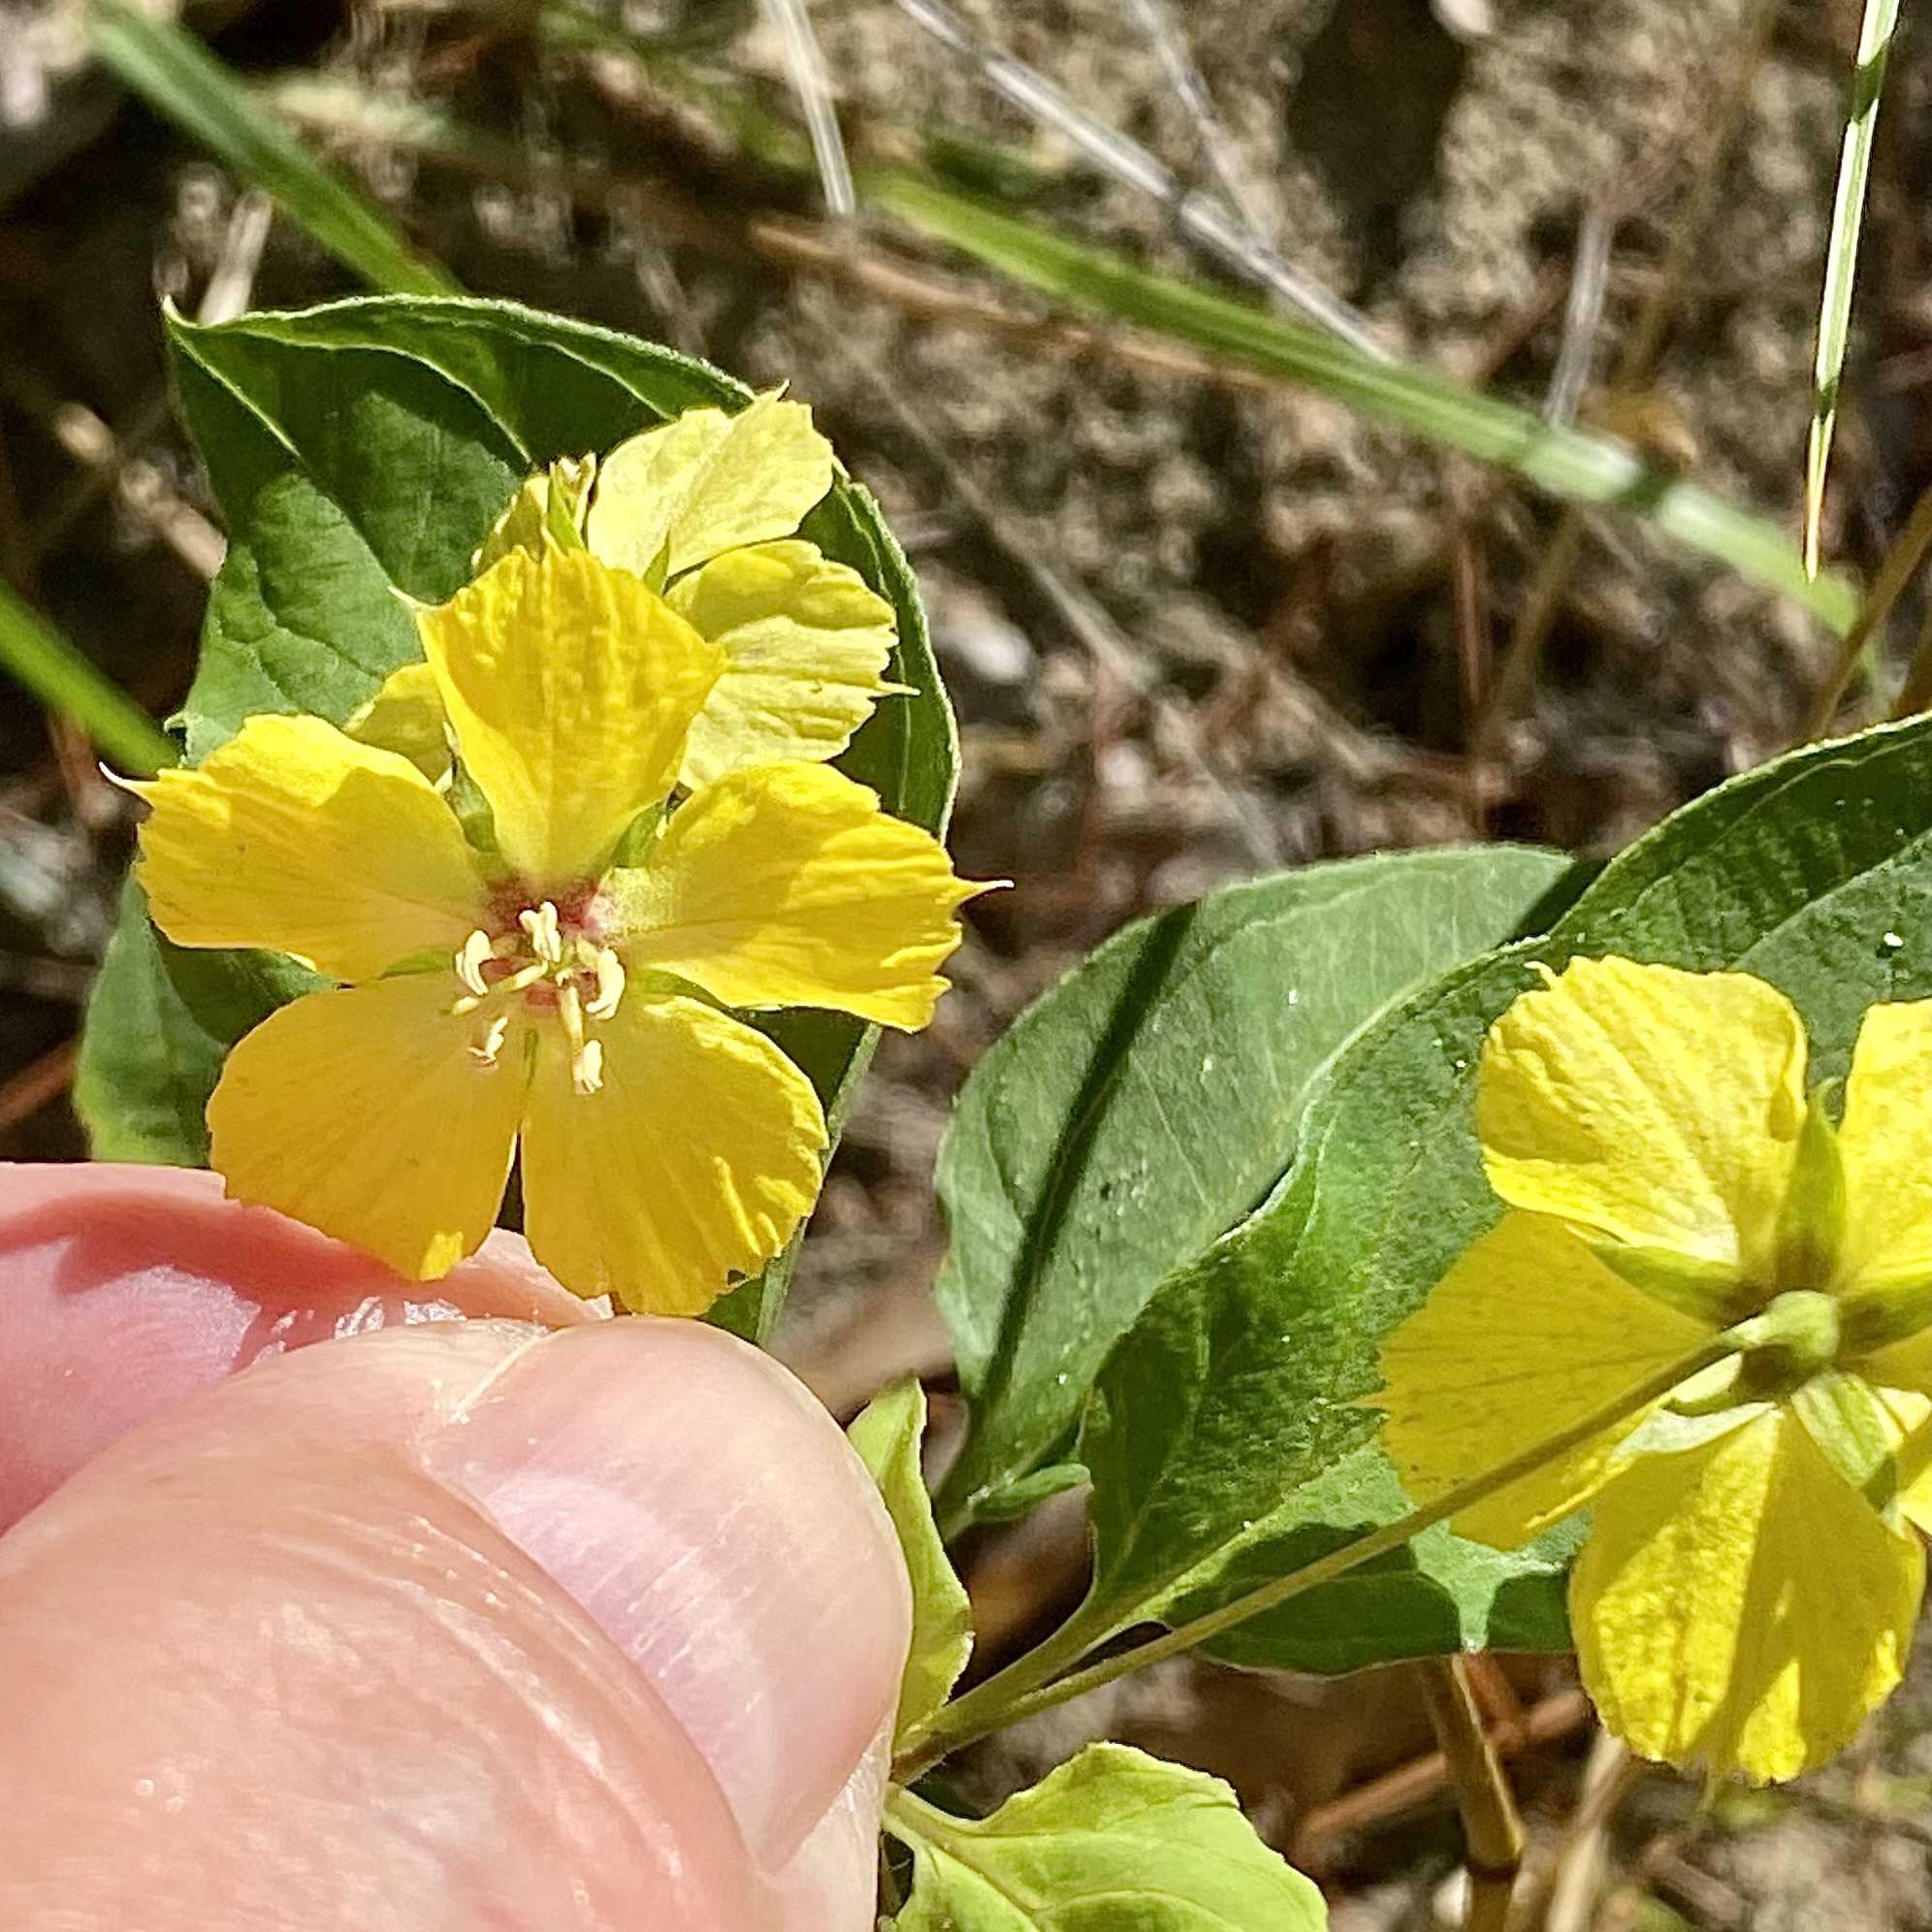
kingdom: Plantae
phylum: Tracheophyta
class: Magnoliopsida
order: Ericales
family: Primulaceae
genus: Lysimachia
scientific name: Lysimachia ciliata
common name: Fringed loosestrife
